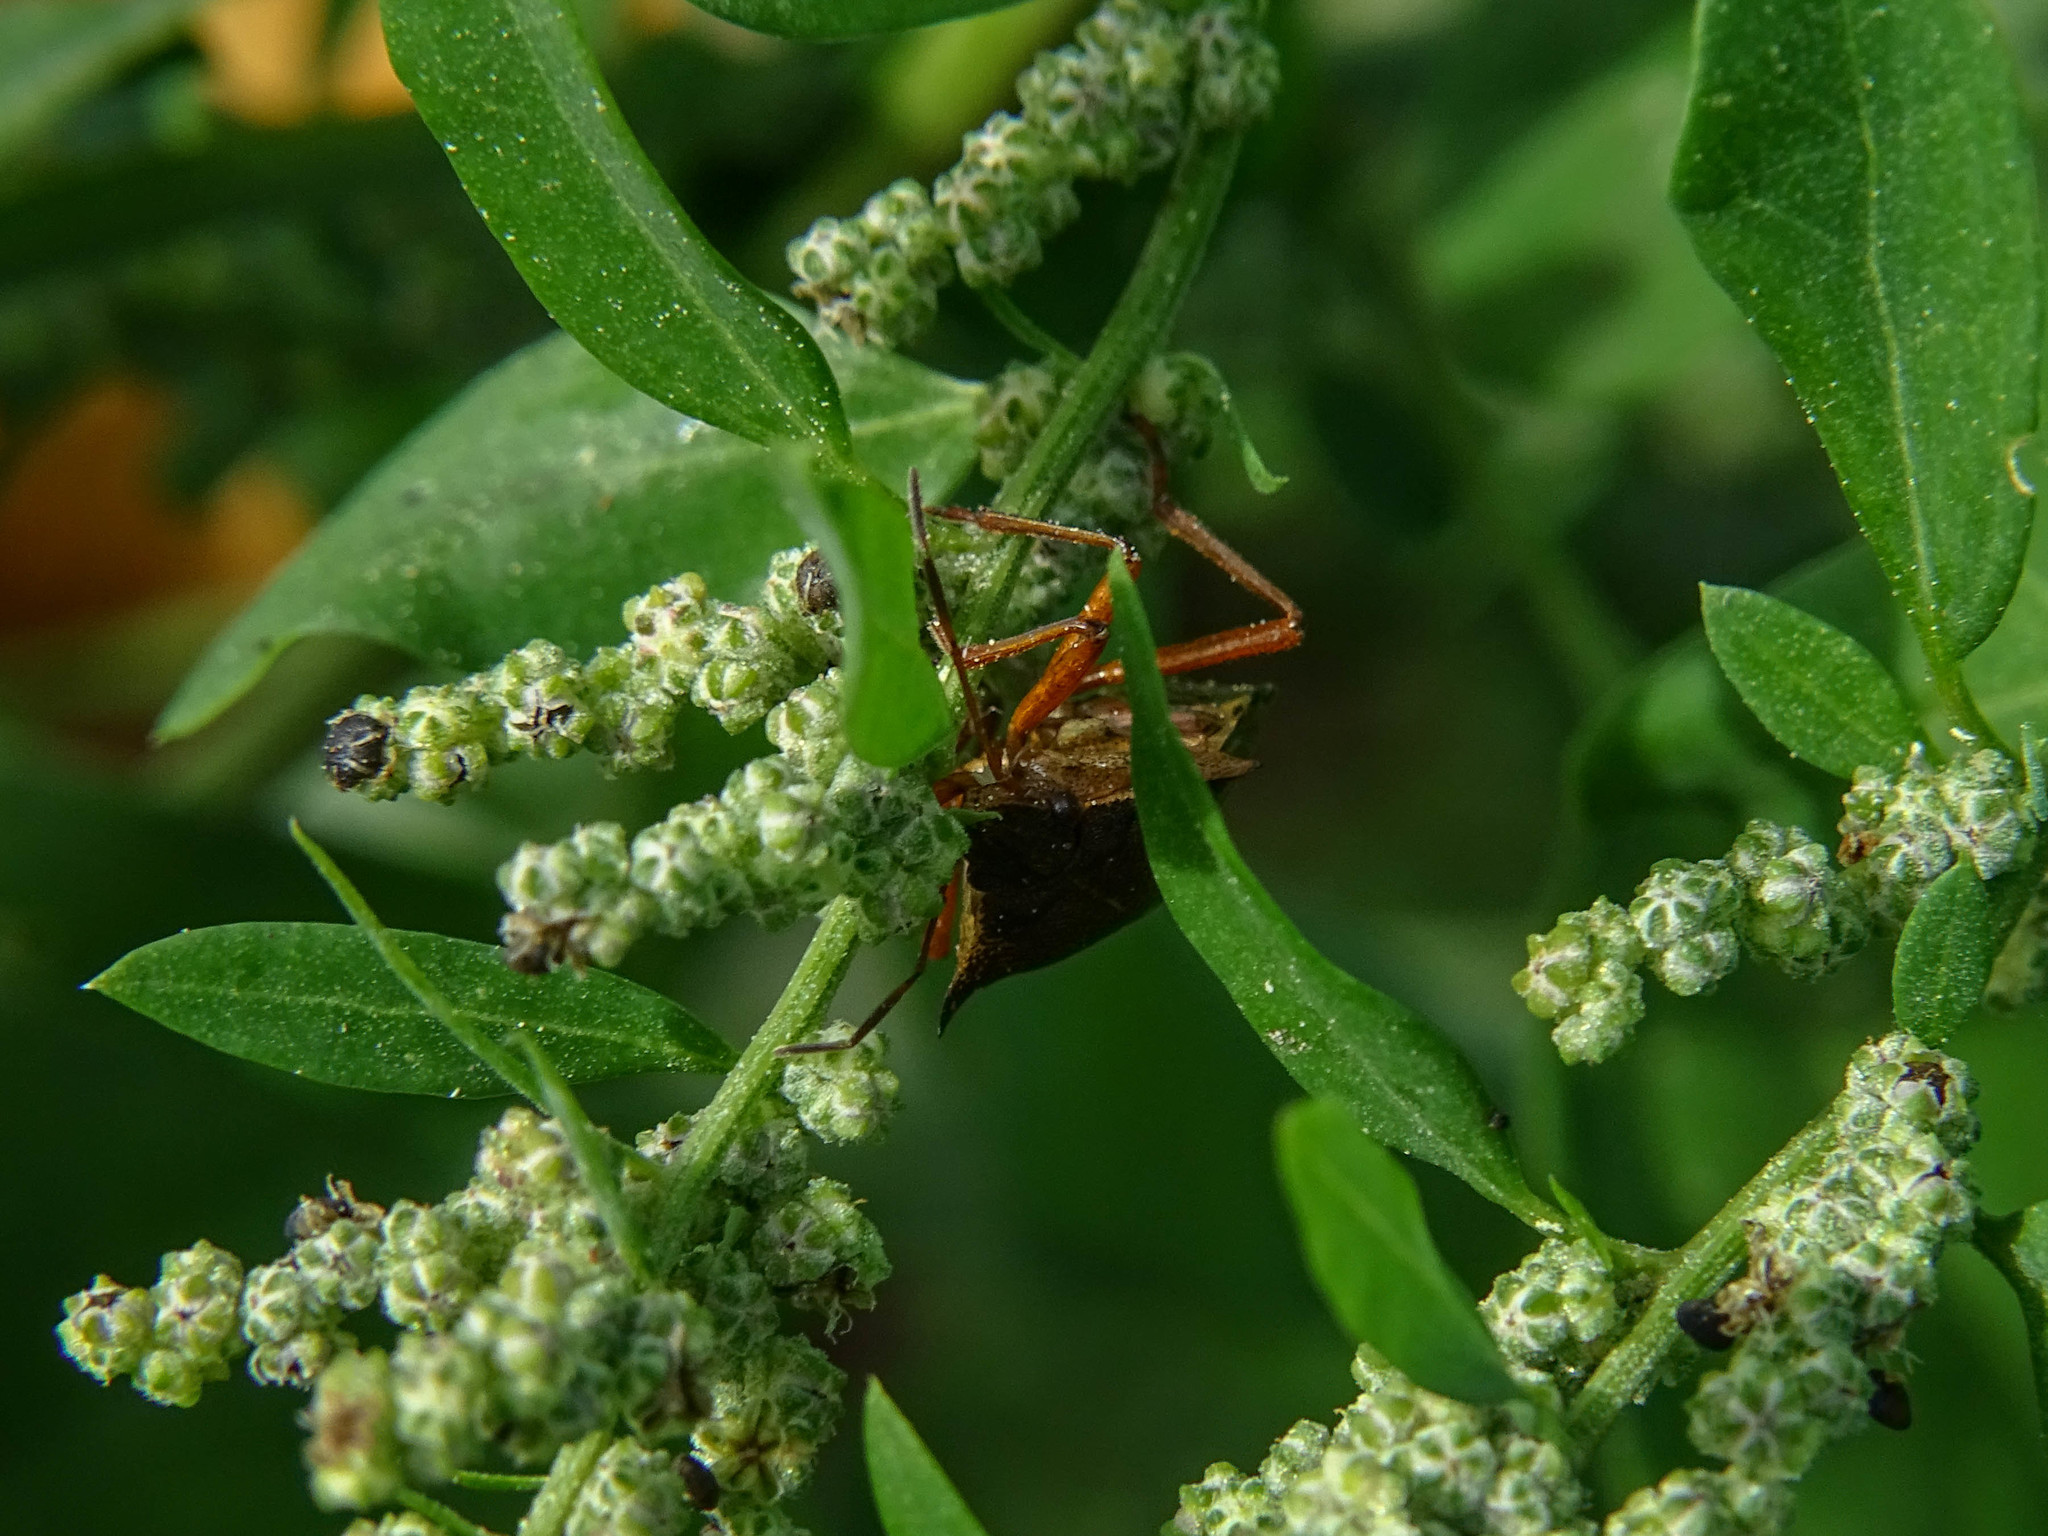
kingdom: Animalia
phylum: Arthropoda
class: Insecta
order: Hemiptera
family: Pentatomidae
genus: Pentatoma
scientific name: Pentatoma rufipes
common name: Forest bug
